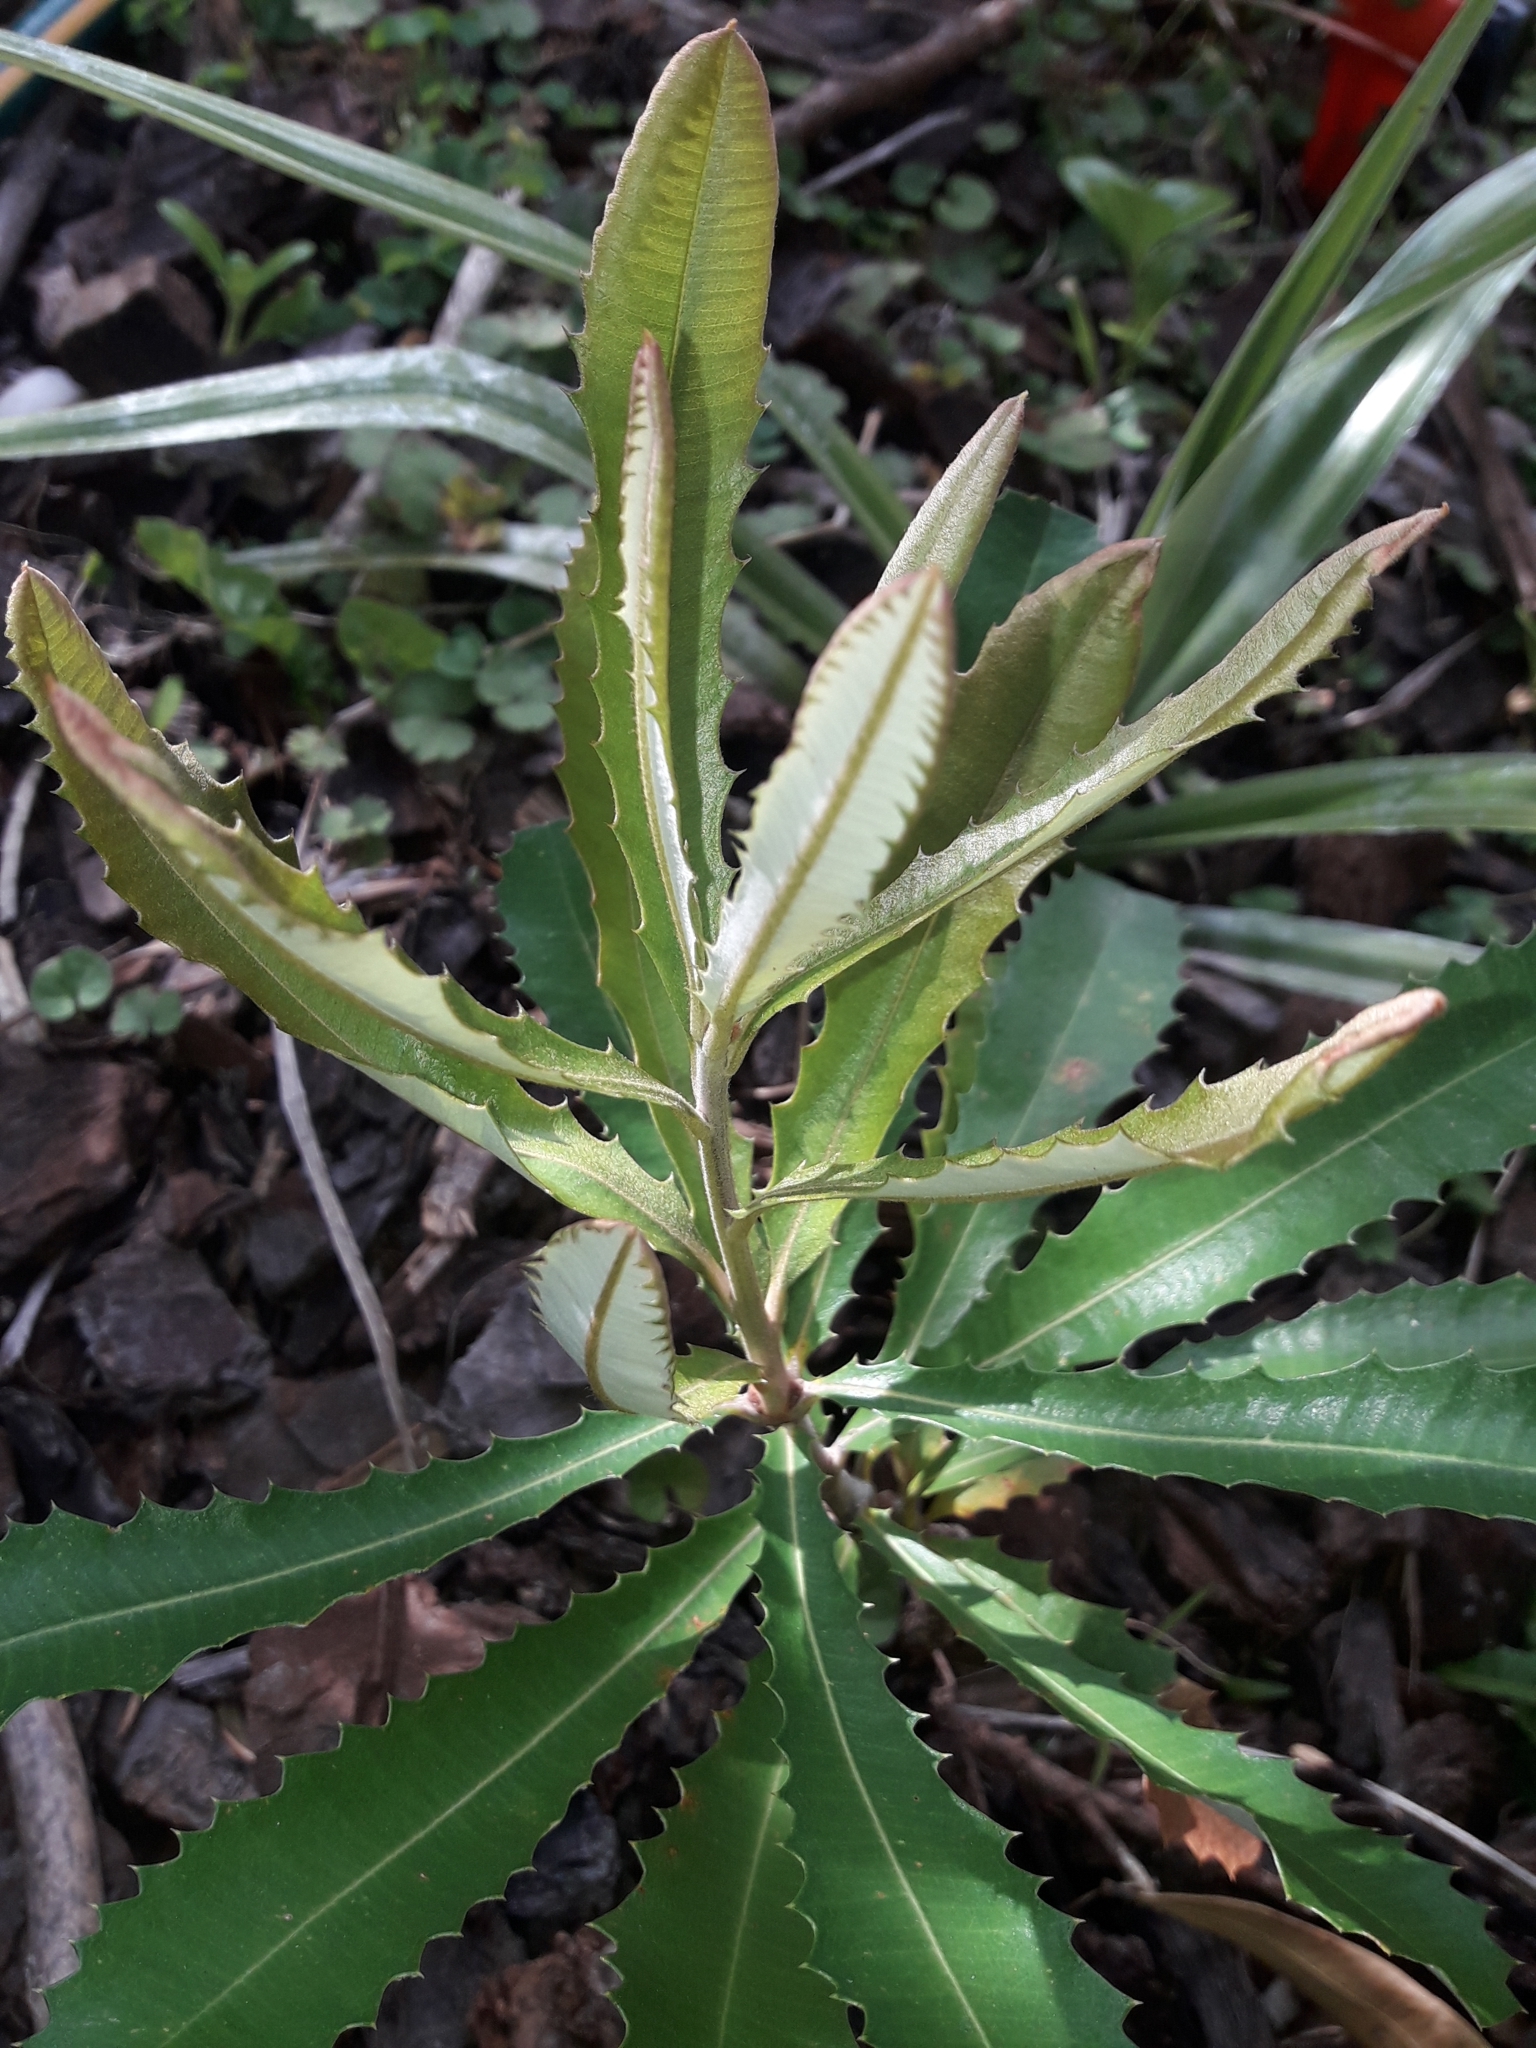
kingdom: Plantae
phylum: Tracheophyta
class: Magnoliopsida
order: Proteales
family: Proteaceae
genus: Banksia
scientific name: Banksia integrifolia
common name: White-honeysuckle
